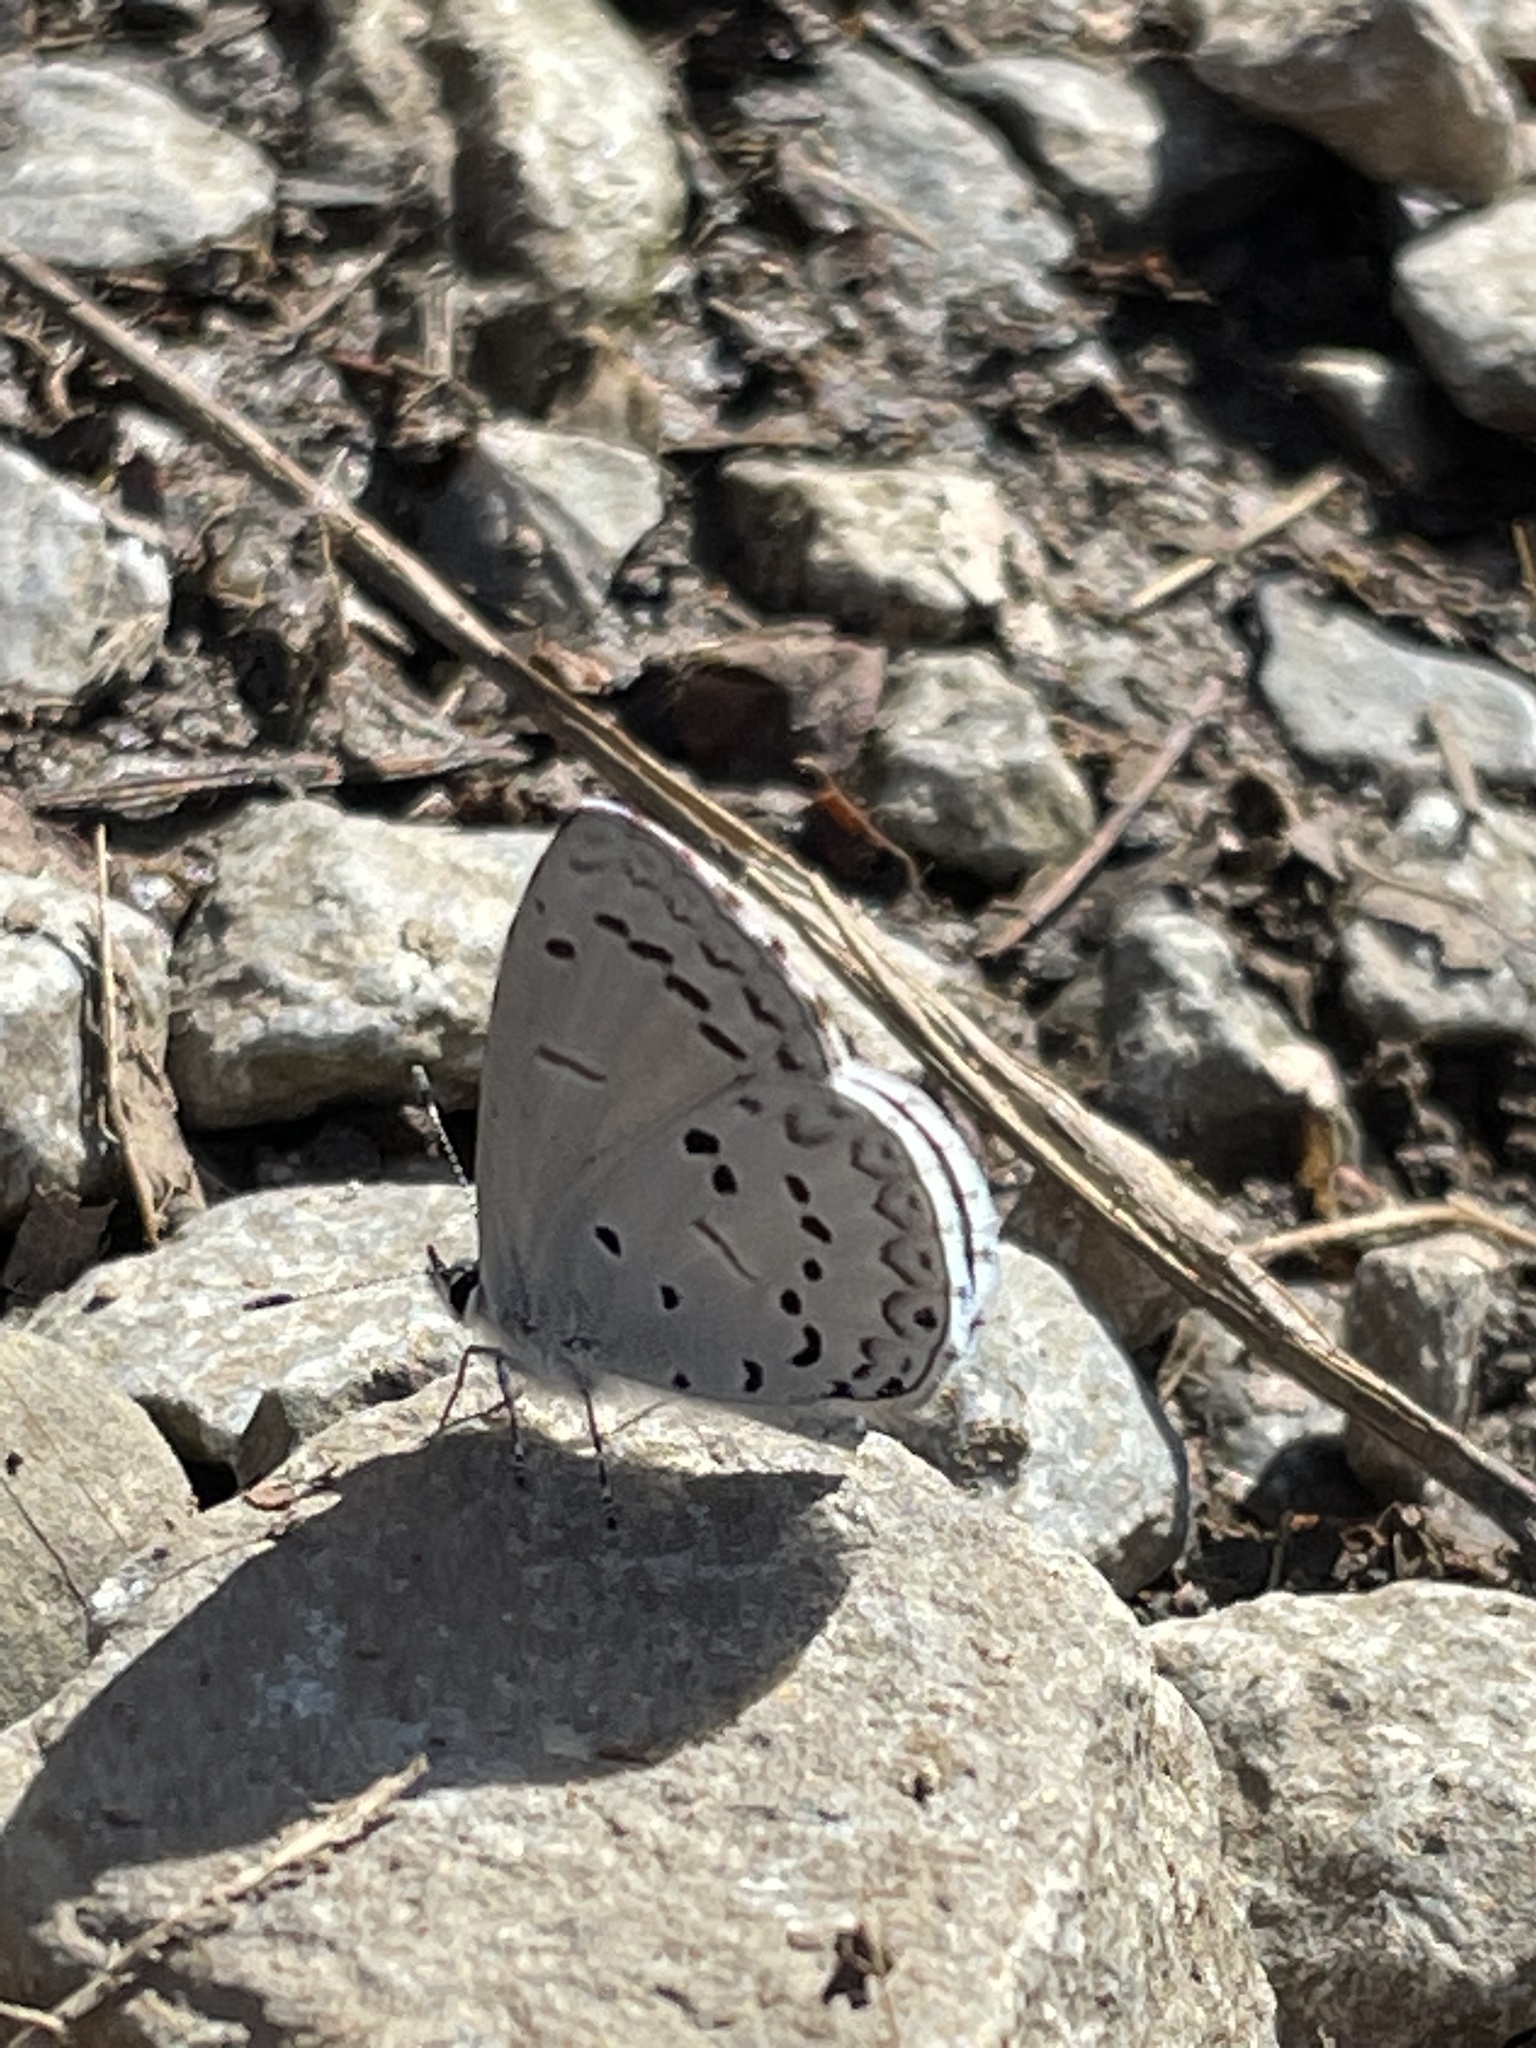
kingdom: Animalia
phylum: Arthropoda
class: Insecta
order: Lepidoptera
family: Lycaenidae
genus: Celastrina
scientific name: Celastrina ladon
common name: Spring azure
